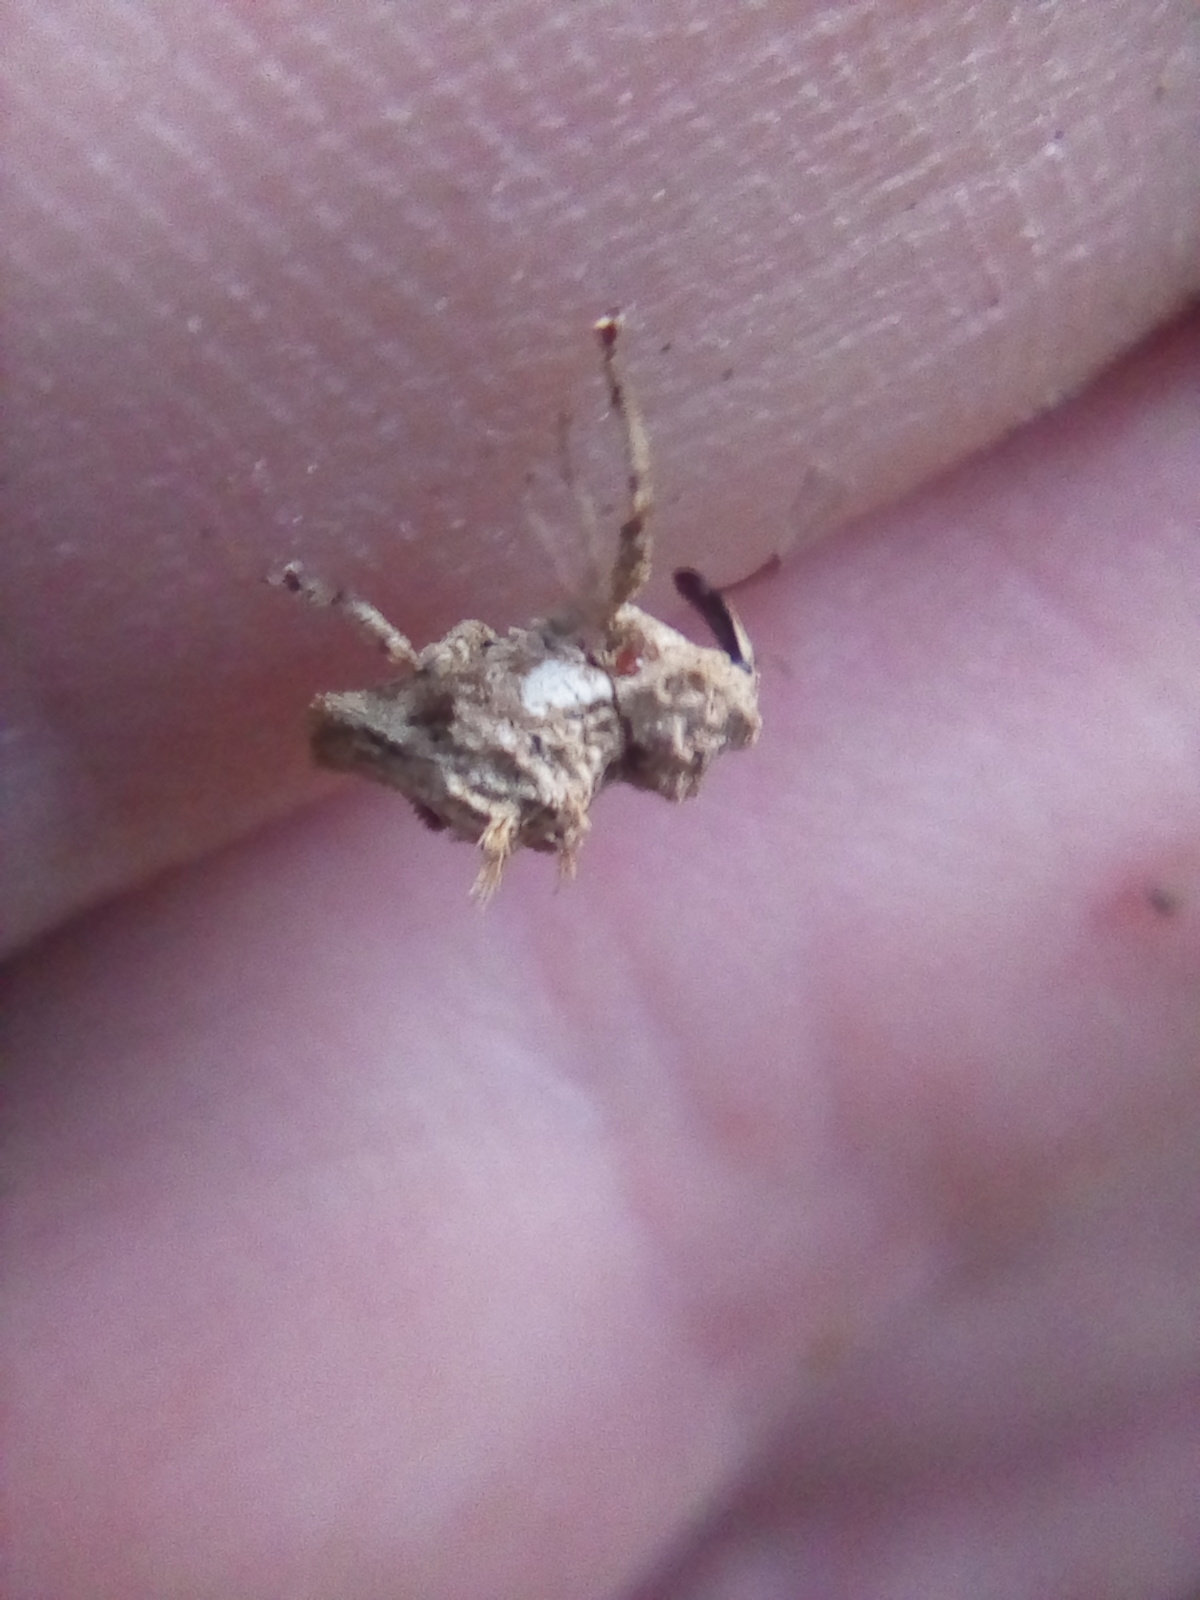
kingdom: Animalia
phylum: Arthropoda
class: Insecta
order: Coleoptera
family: Curculionidae
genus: Indecentia
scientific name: Indecentia nubila
